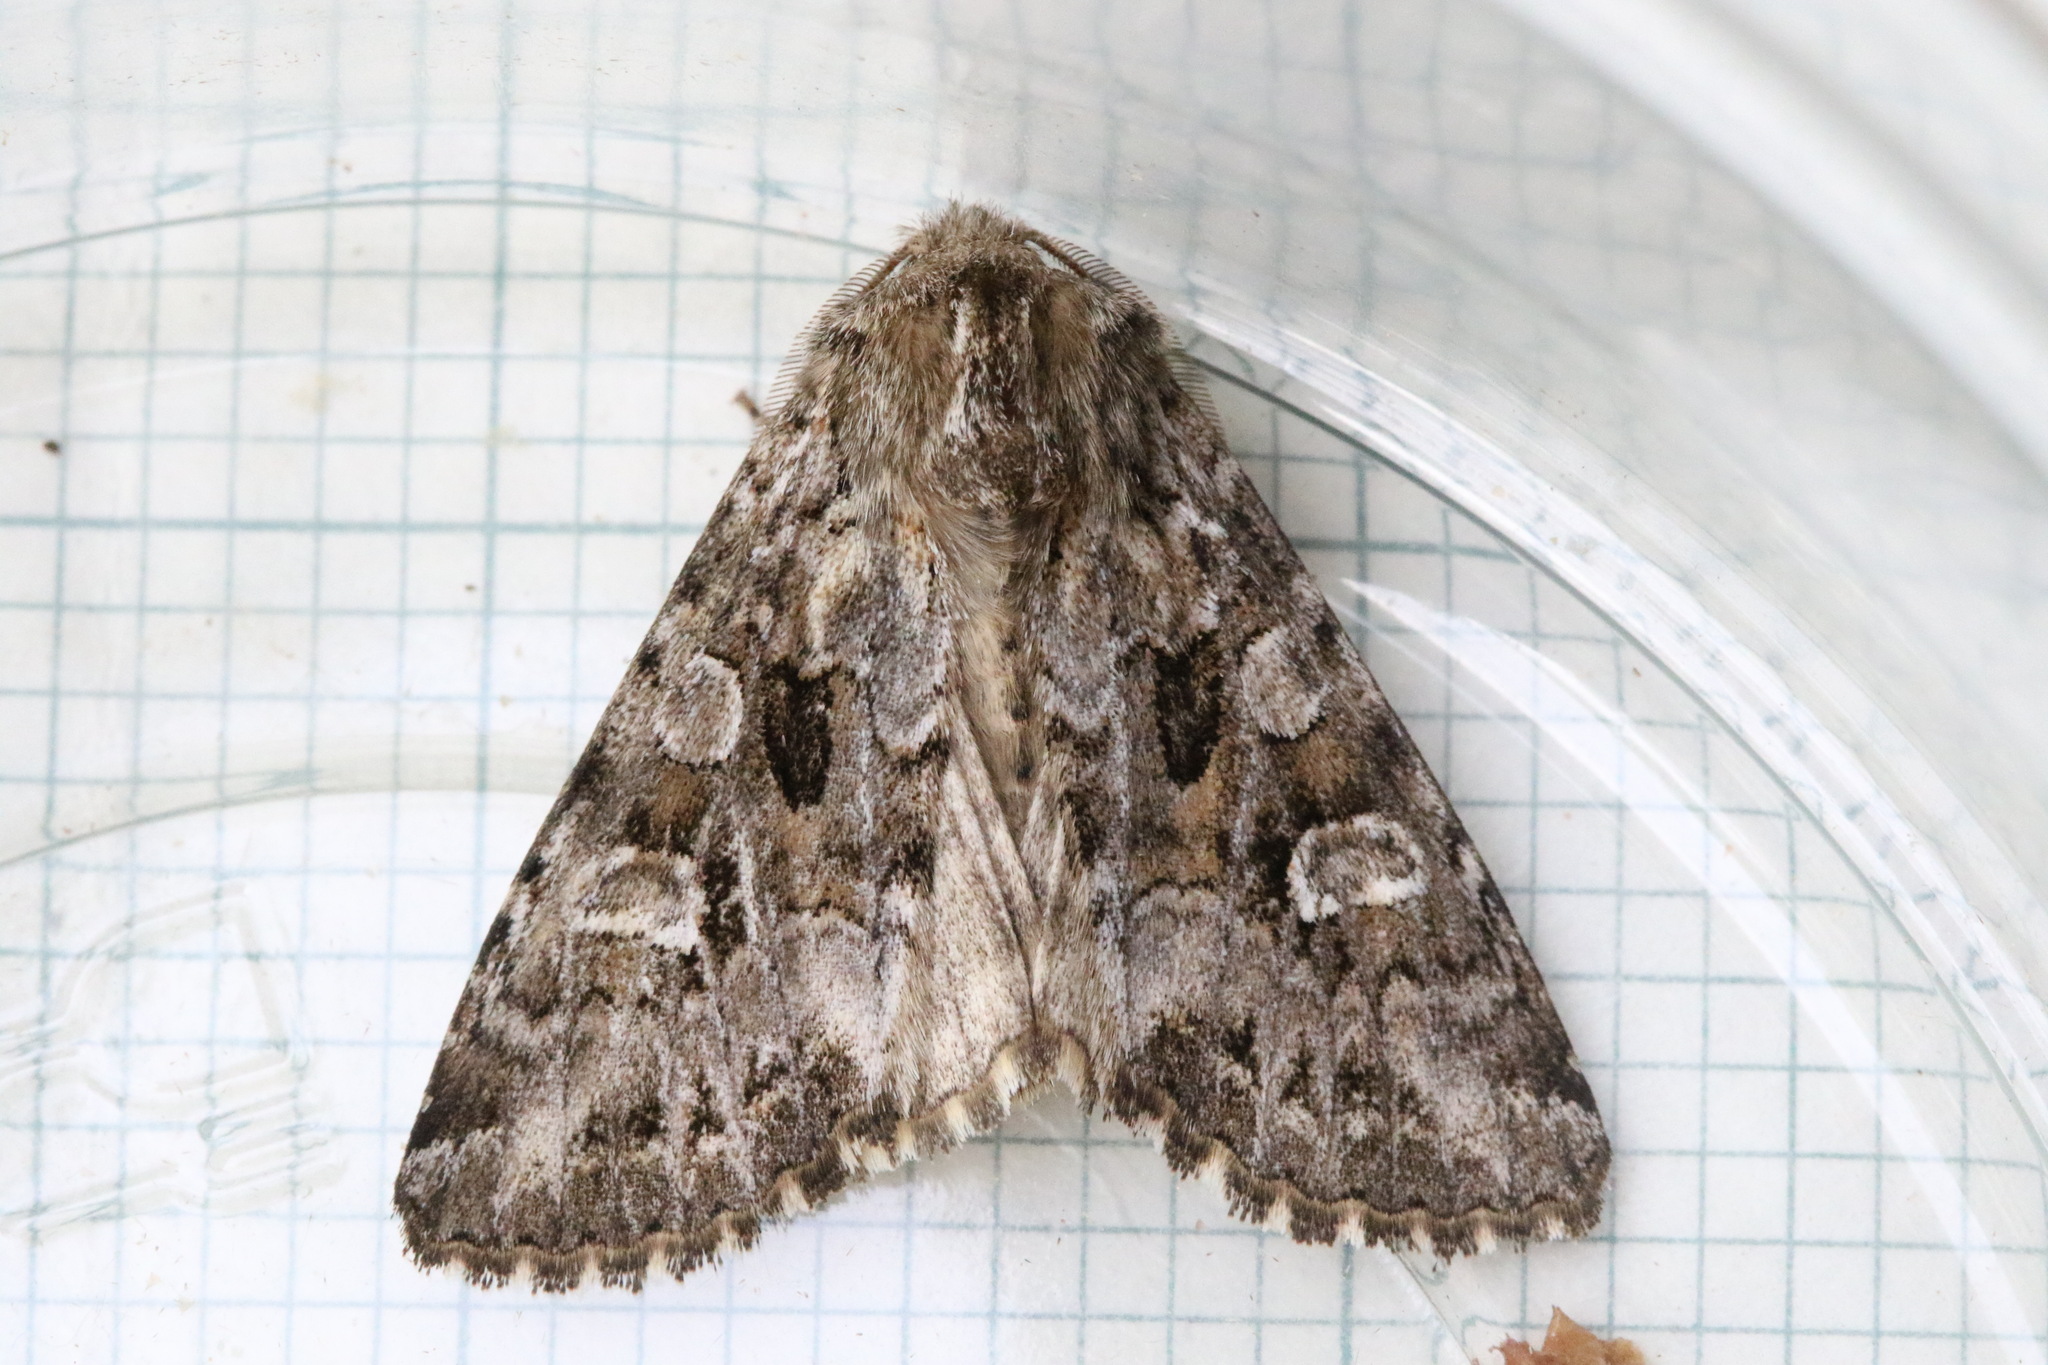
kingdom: Animalia
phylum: Arthropoda
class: Insecta
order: Lepidoptera
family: Noctuidae
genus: Pachetra
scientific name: Pachetra sagittigera
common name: Feathered ear
